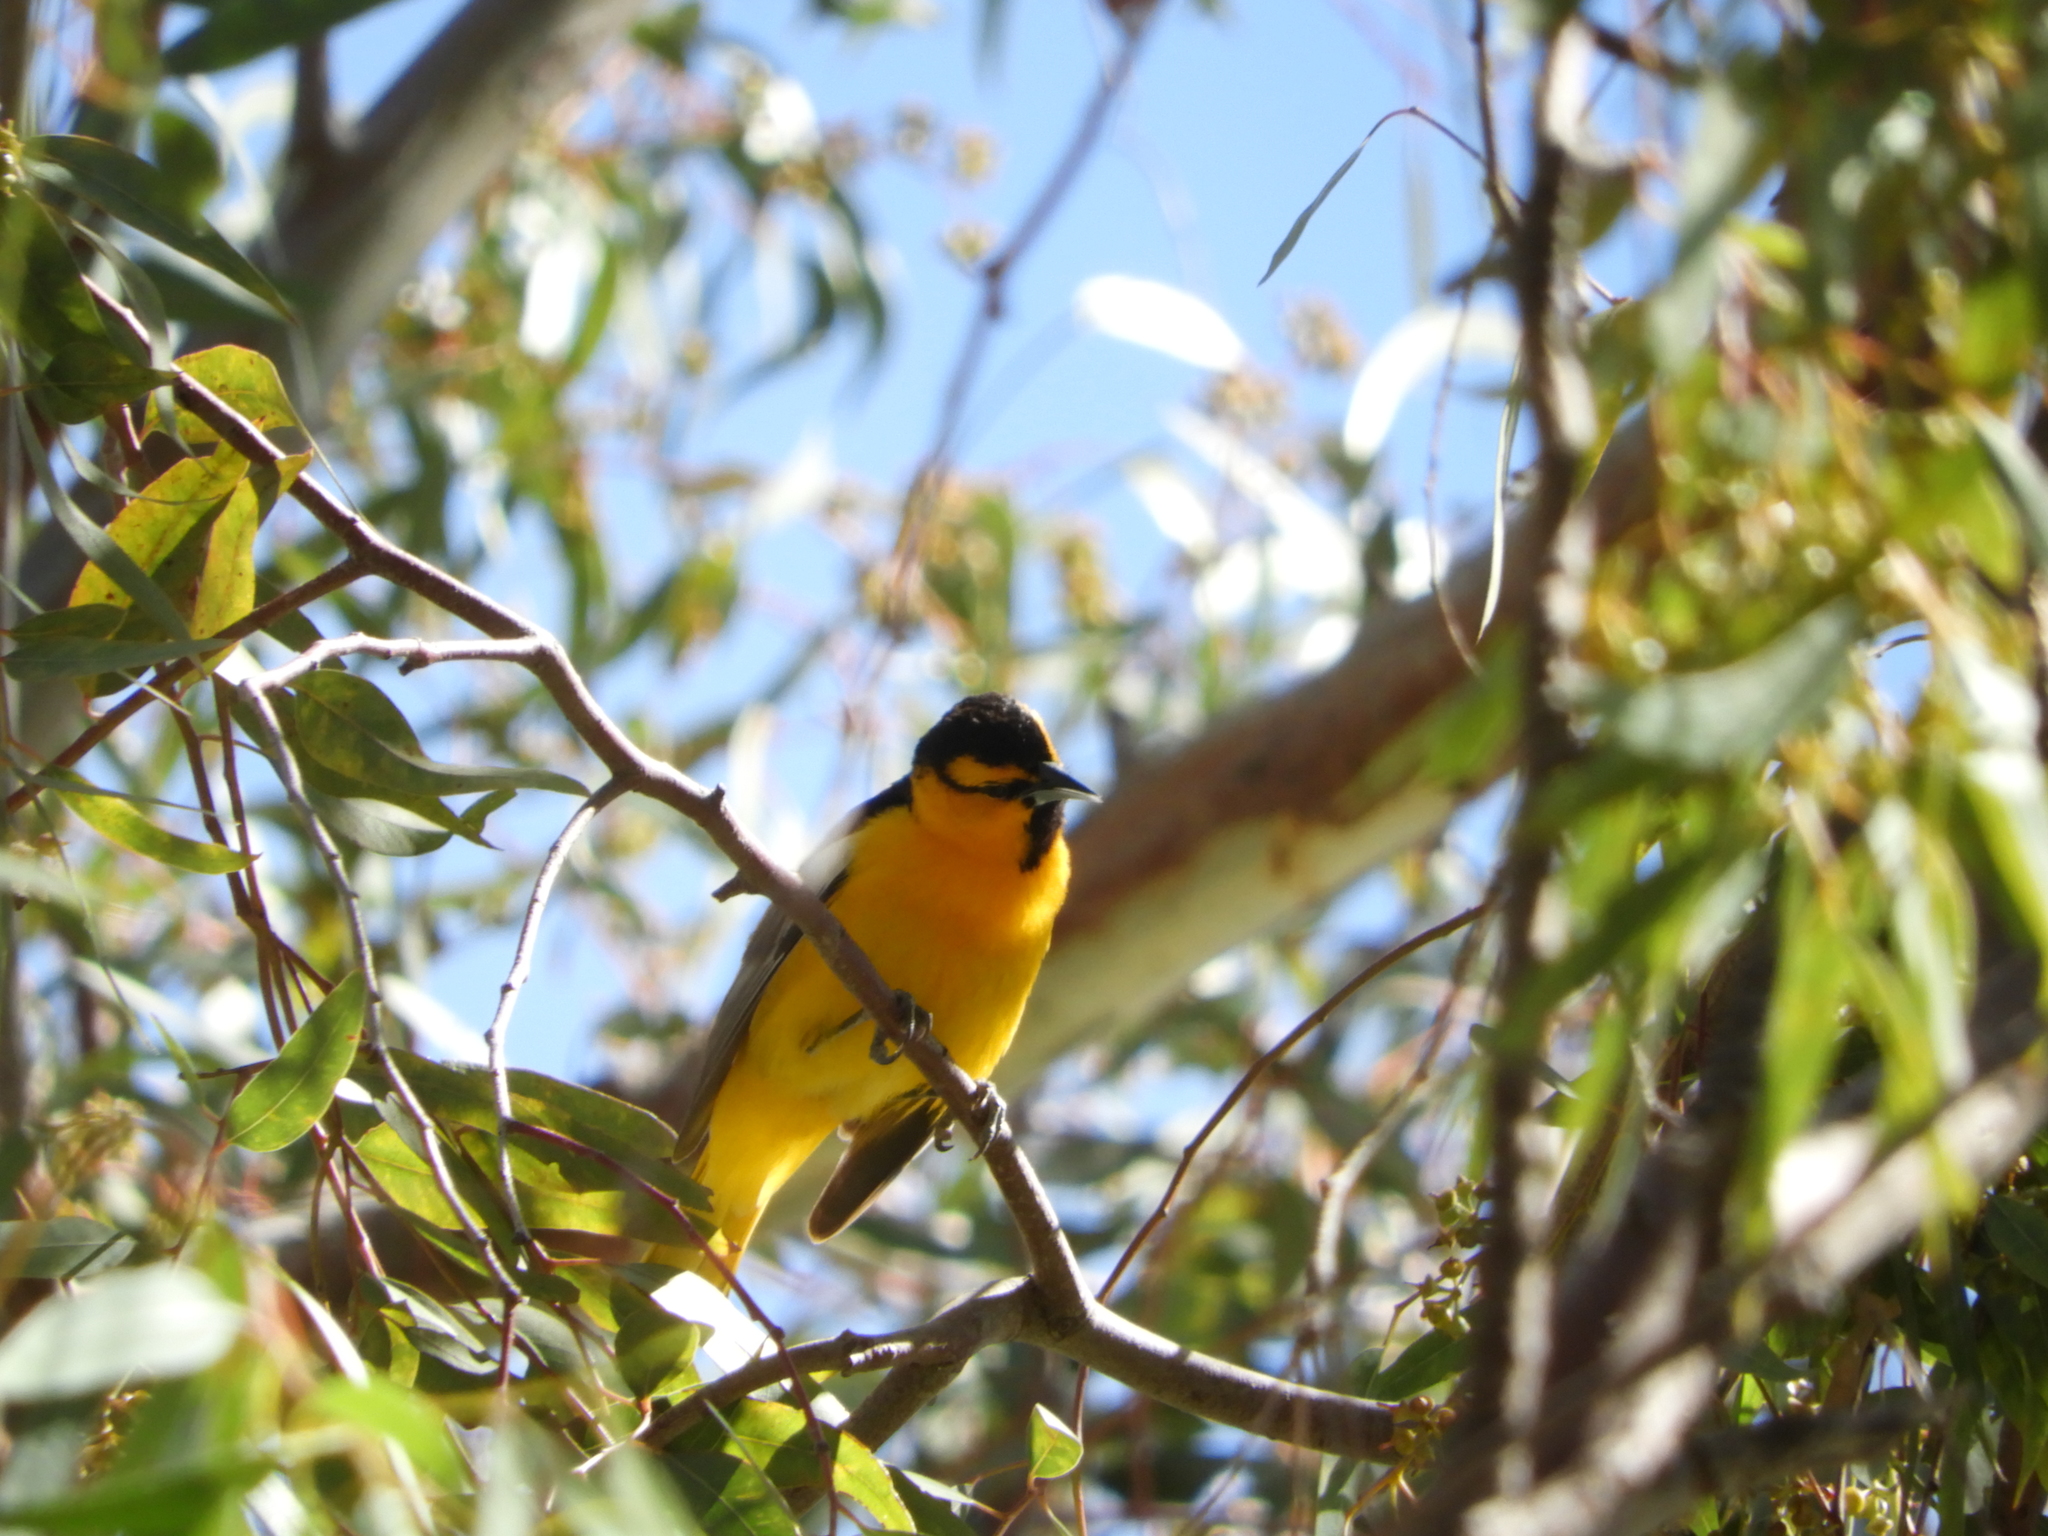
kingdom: Animalia
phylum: Chordata
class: Aves
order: Passeriformes
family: Icteridae
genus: Icterus
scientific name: Icterus bullockii
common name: Bullock's oriole
